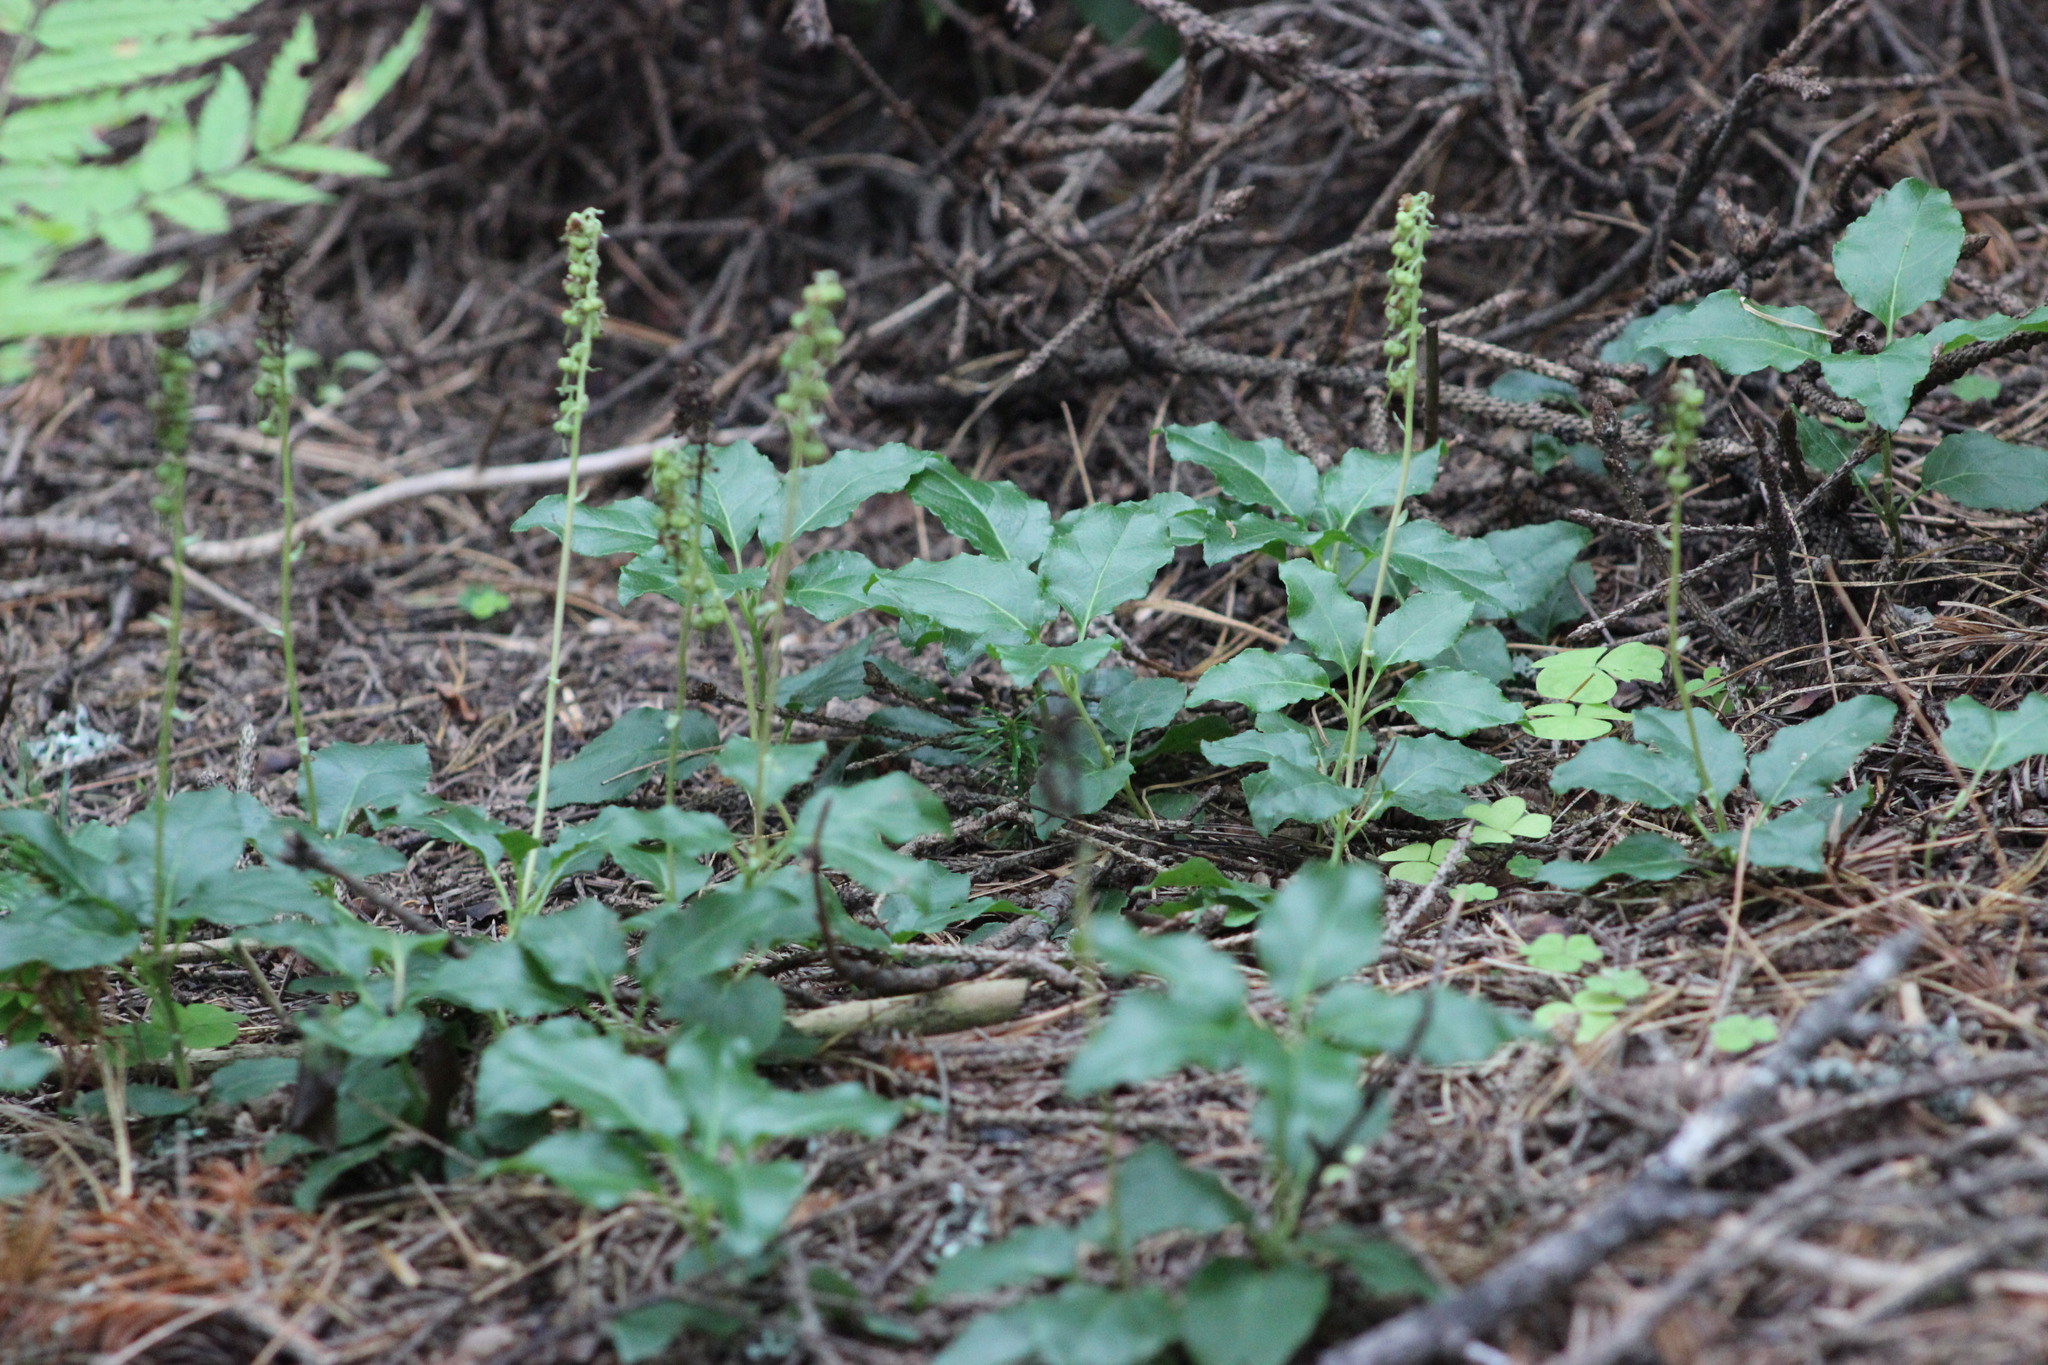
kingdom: Plantae
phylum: Tracheophyta
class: Magnoliopsida
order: Ericales
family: Ericaceae
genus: Orthilia
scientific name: Orthilia secunda
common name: One-sided orthilia
